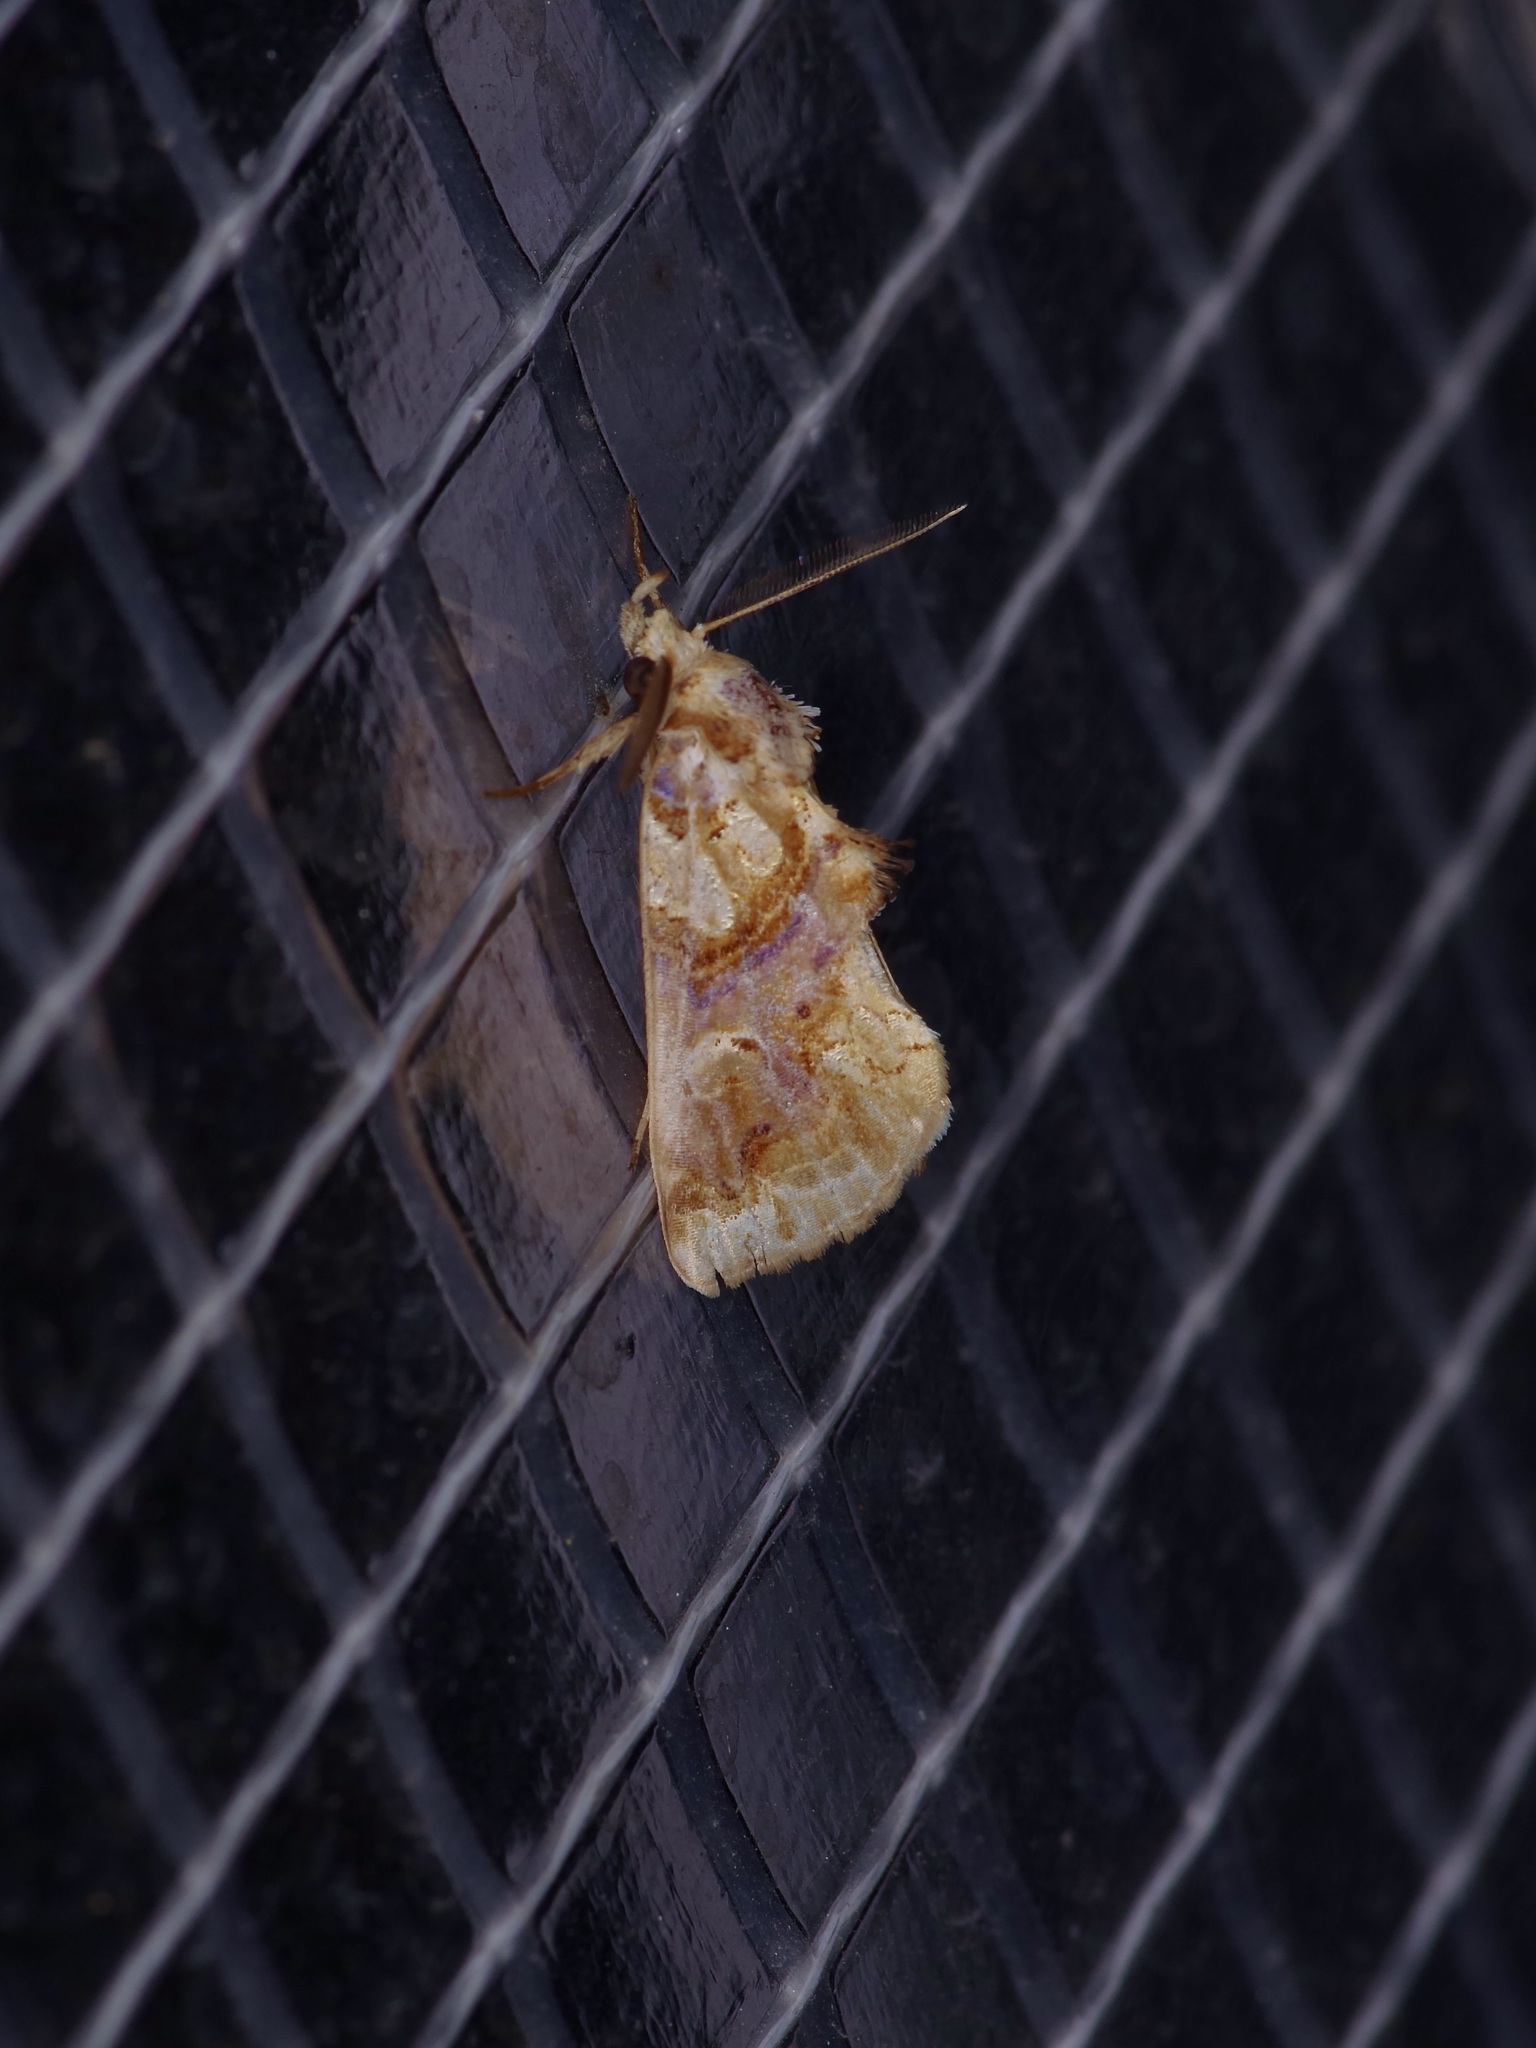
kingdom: Animalia
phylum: Arthropoda
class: Insecta
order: Lepidoptera
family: Erebidae
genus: Plusiodonta
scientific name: Plusiodonta compressipalpis
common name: Moonseed moth
